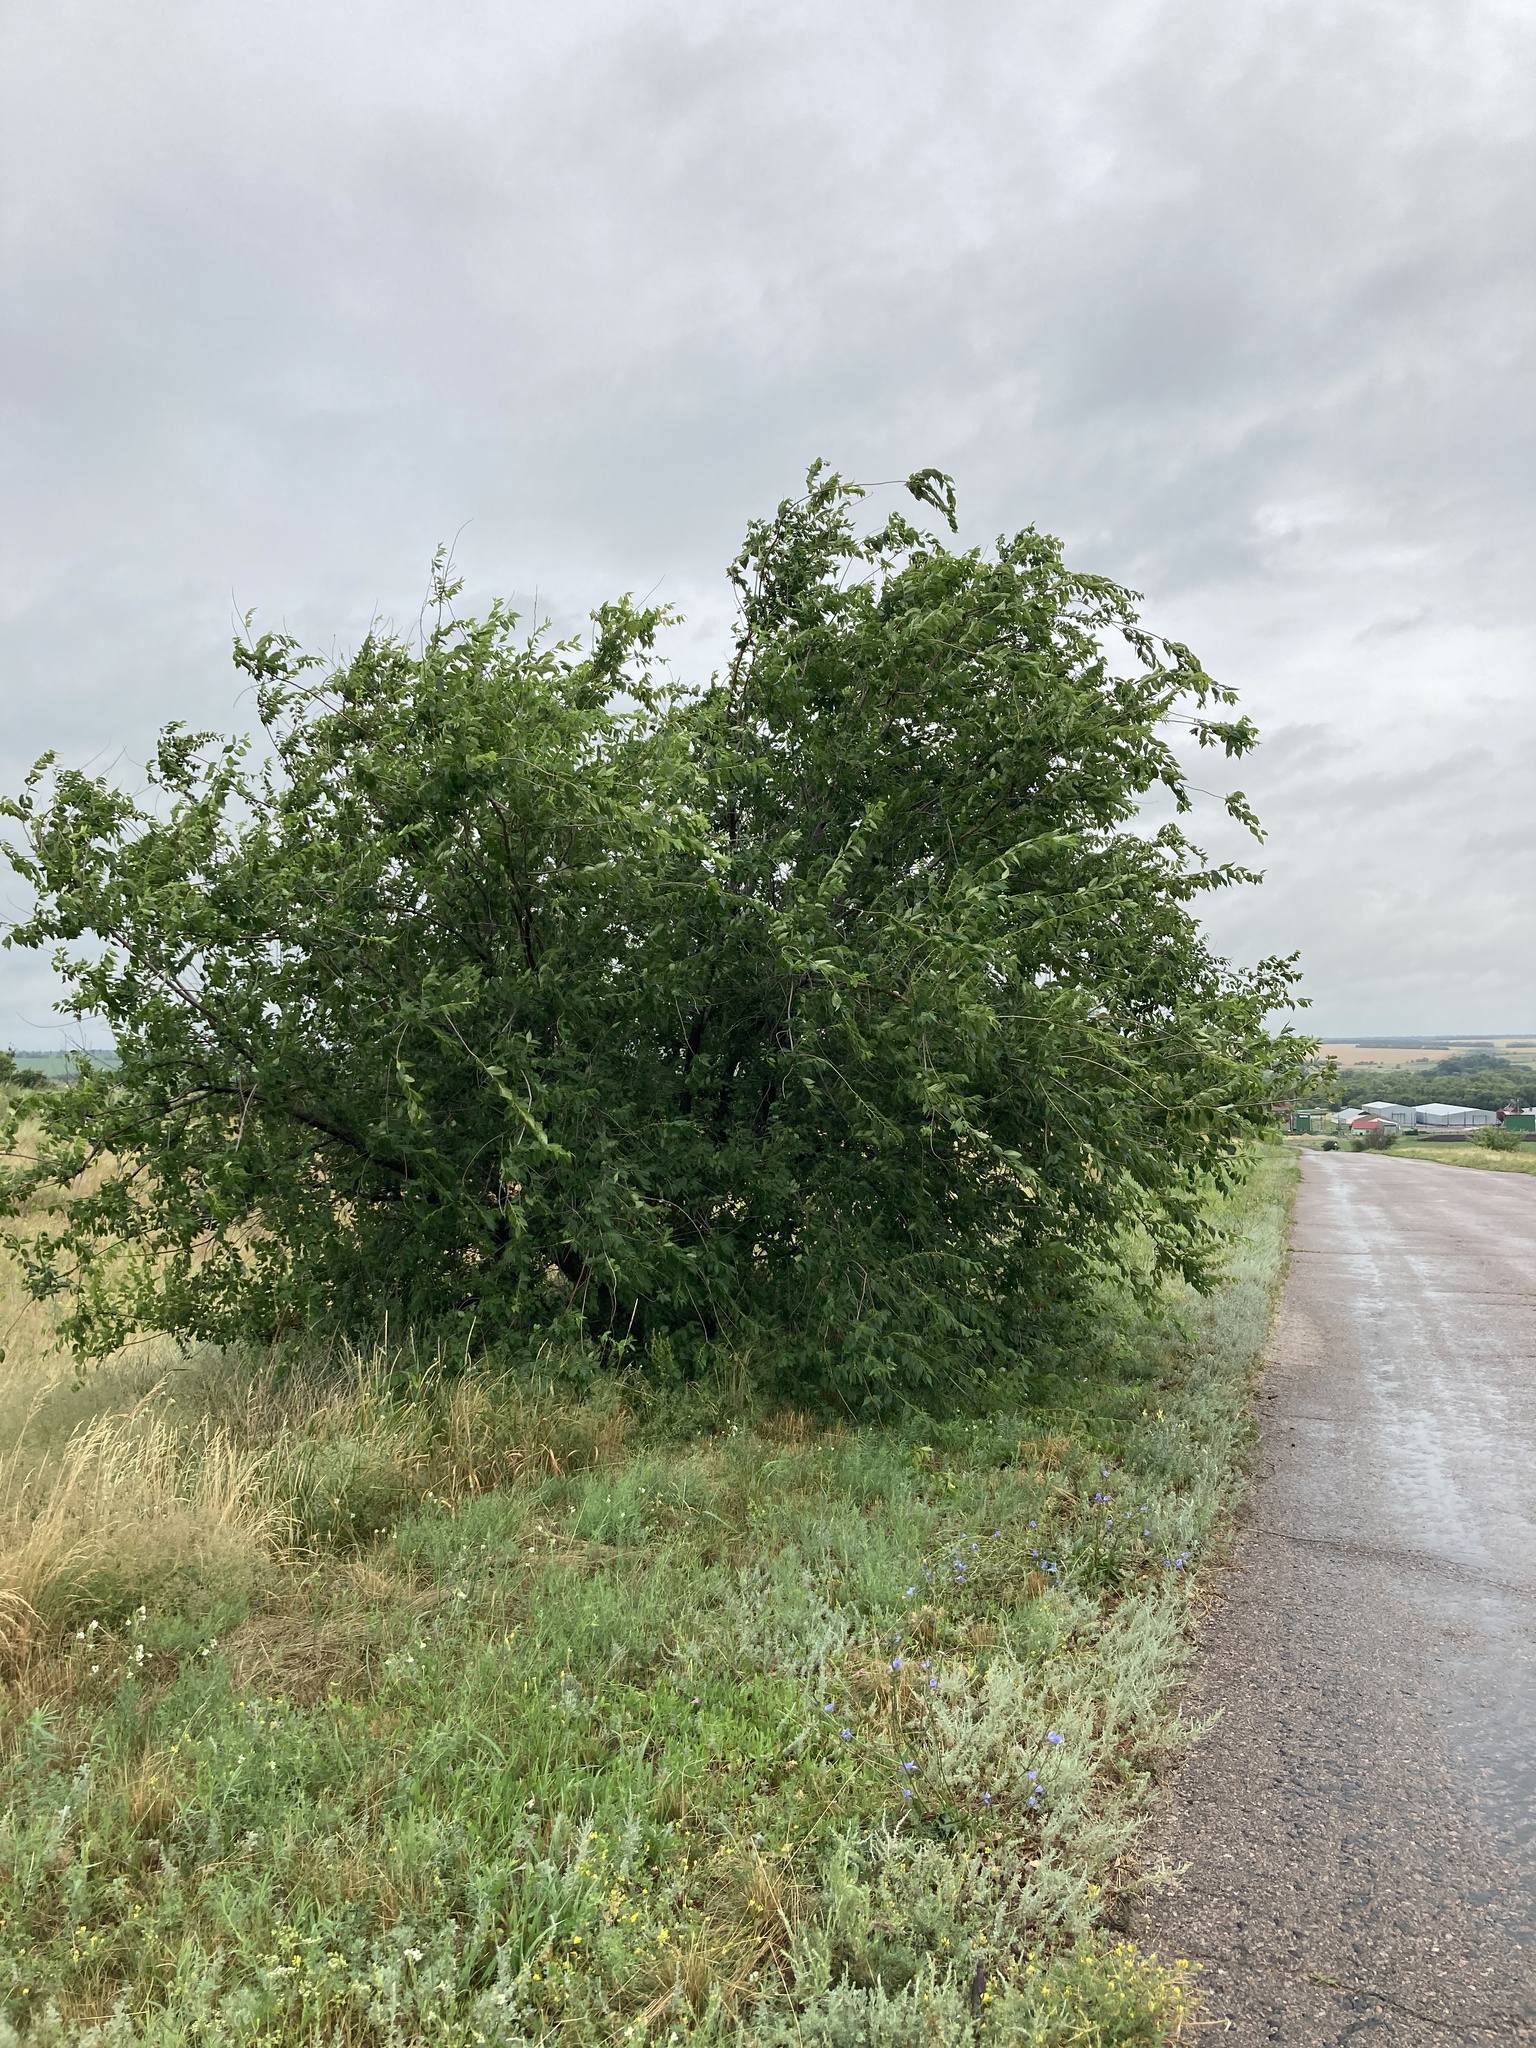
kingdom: Plantae
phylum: Tracheophyta
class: Magnoliopsida
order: Rosales
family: Ulmaceae
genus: Ulmus
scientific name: Ulmus pumila
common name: Siberian elm
